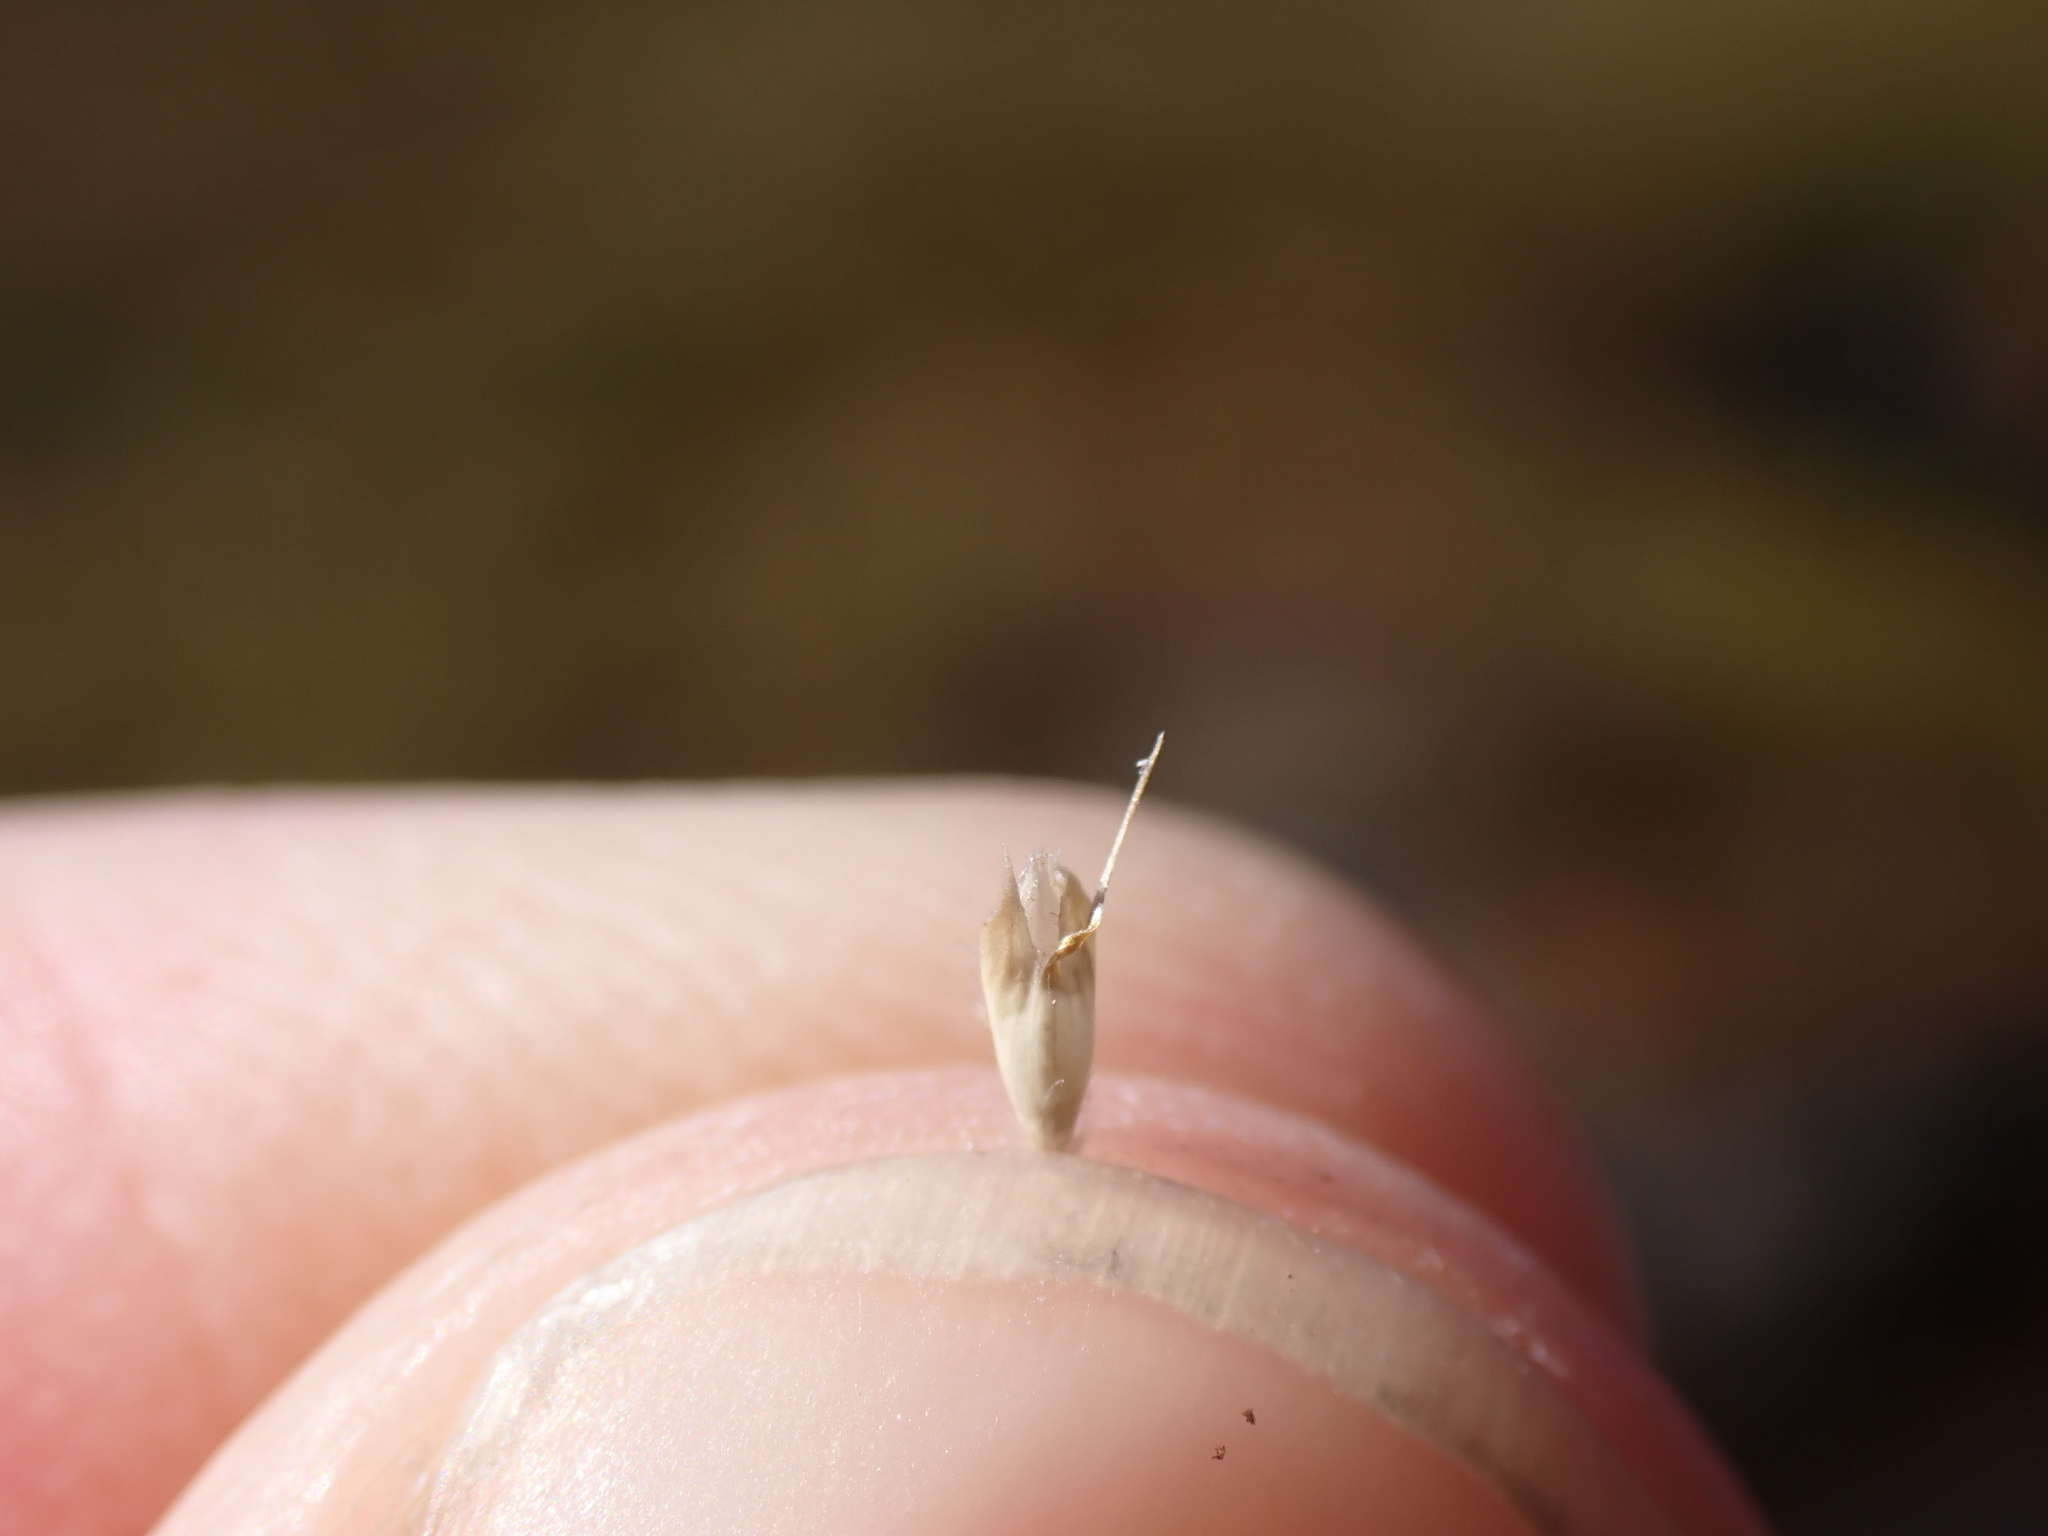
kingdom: Plantae
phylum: Tracheophyta
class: Liliopsida
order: Poales
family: Poaceae
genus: Rytidosperma
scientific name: Rytidosperma nivicola
